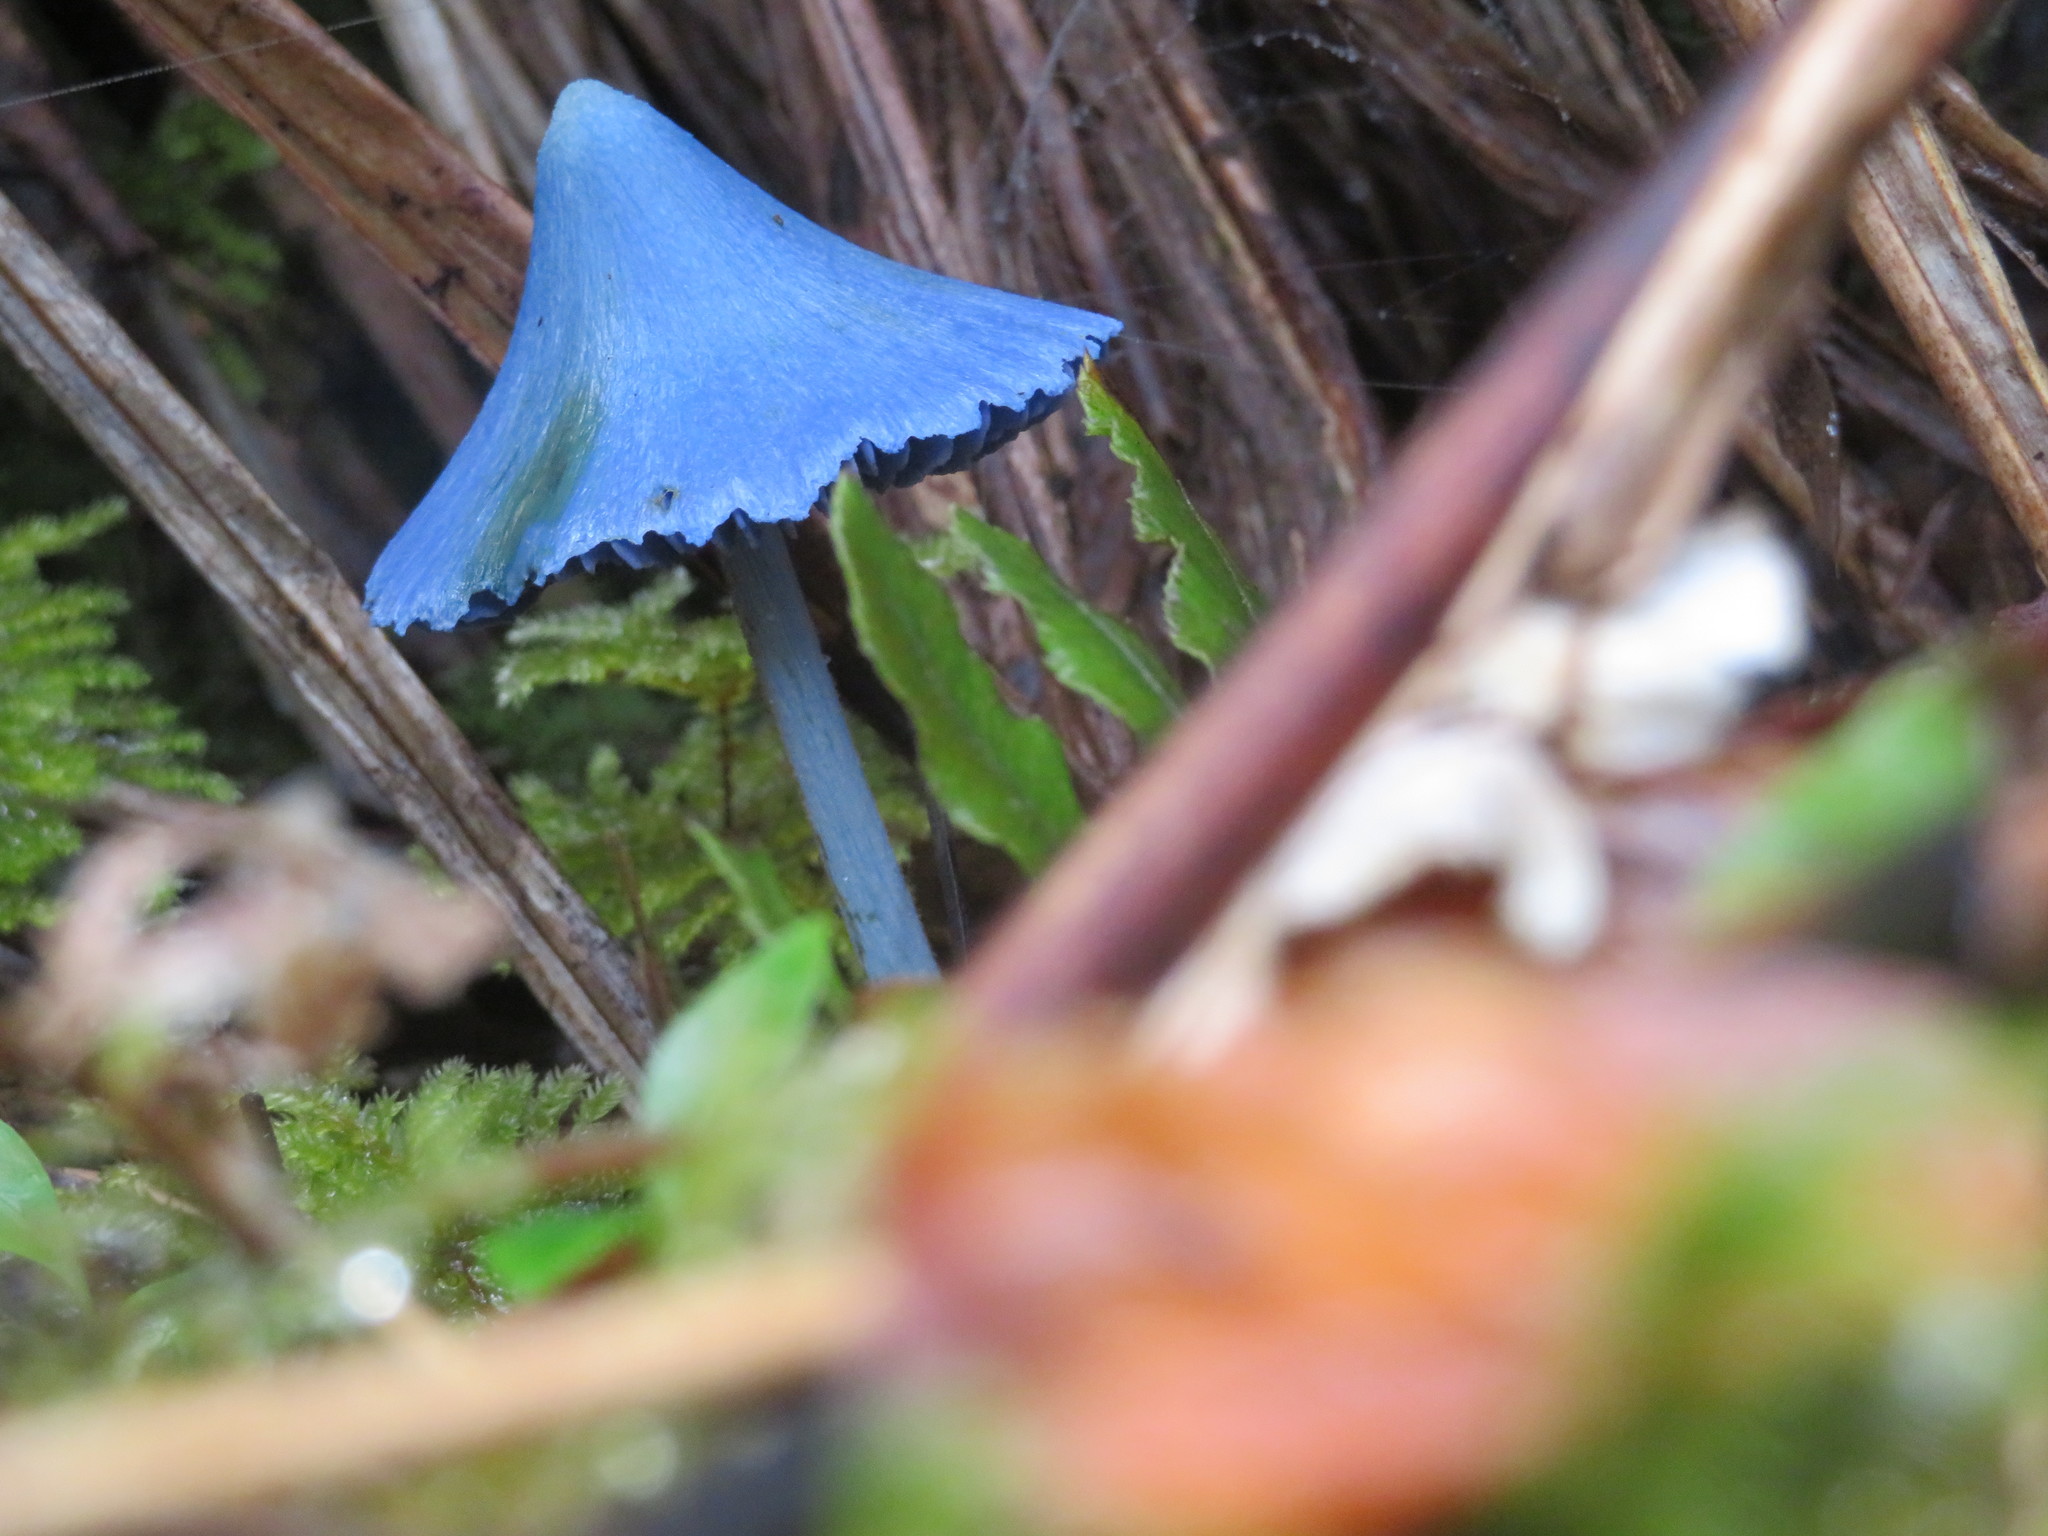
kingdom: Fungi
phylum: Basidiomycota
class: Agaricomycetes
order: Agaricales
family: Entolomataceae
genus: Entoloma
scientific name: Entoloma hochstetteri
